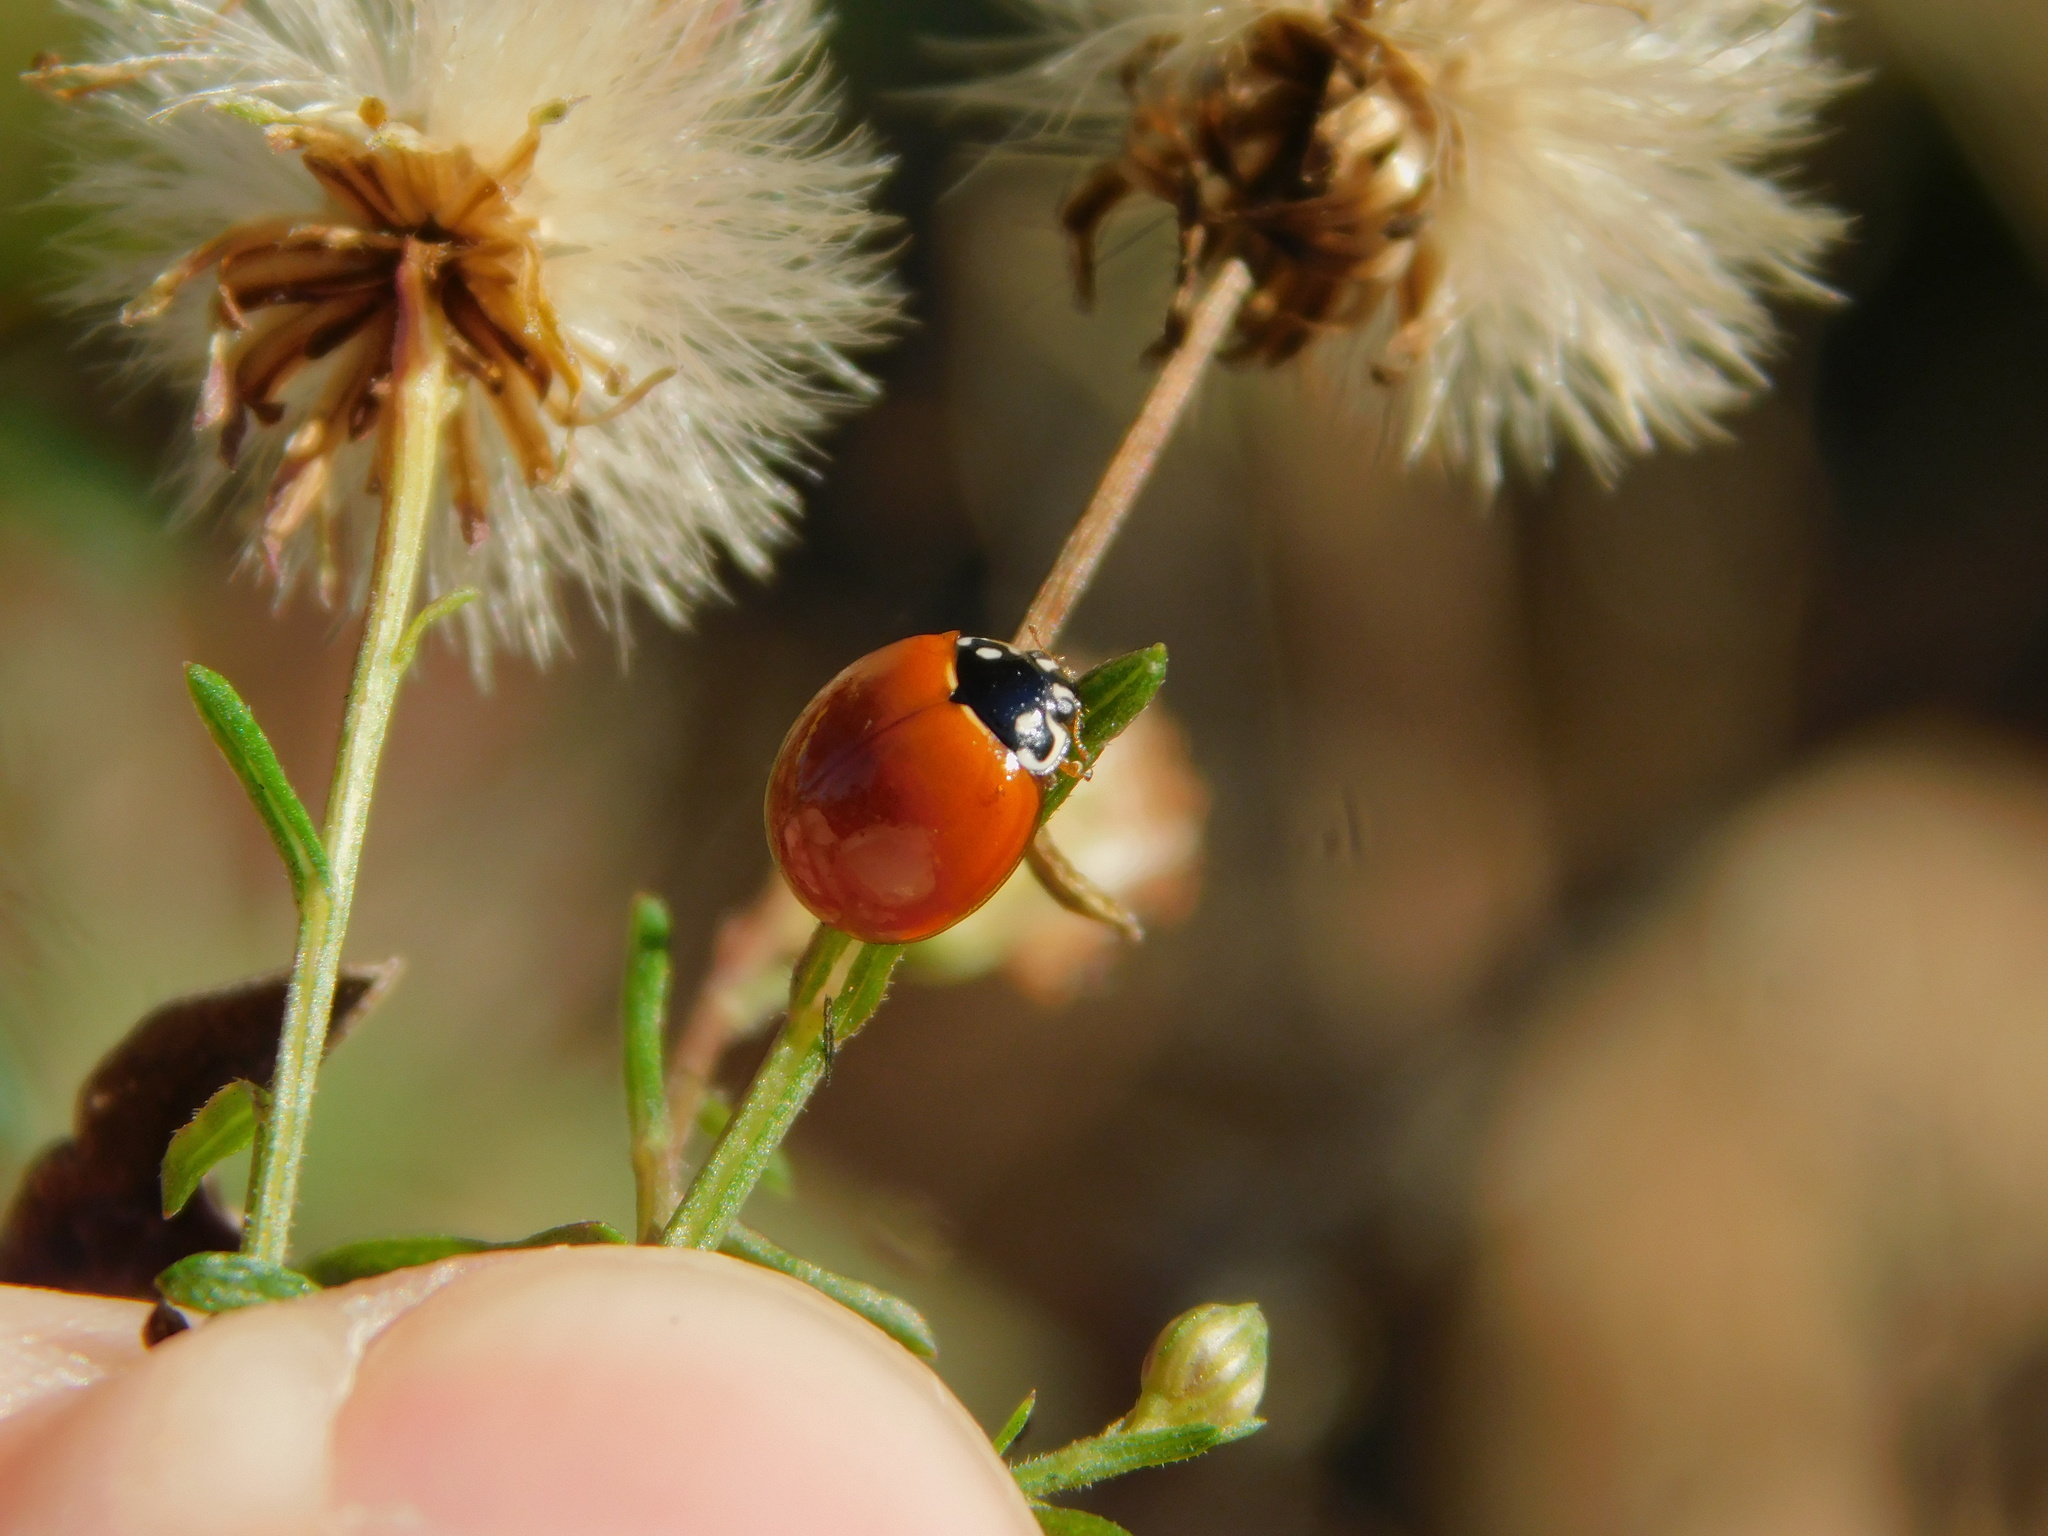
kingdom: Animalia
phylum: Arthropoda
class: Insecta
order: Coleoptera
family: Coccinellidae
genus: Cycloneda
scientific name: Cycloneda sanguinea
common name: Ladybird beetle
